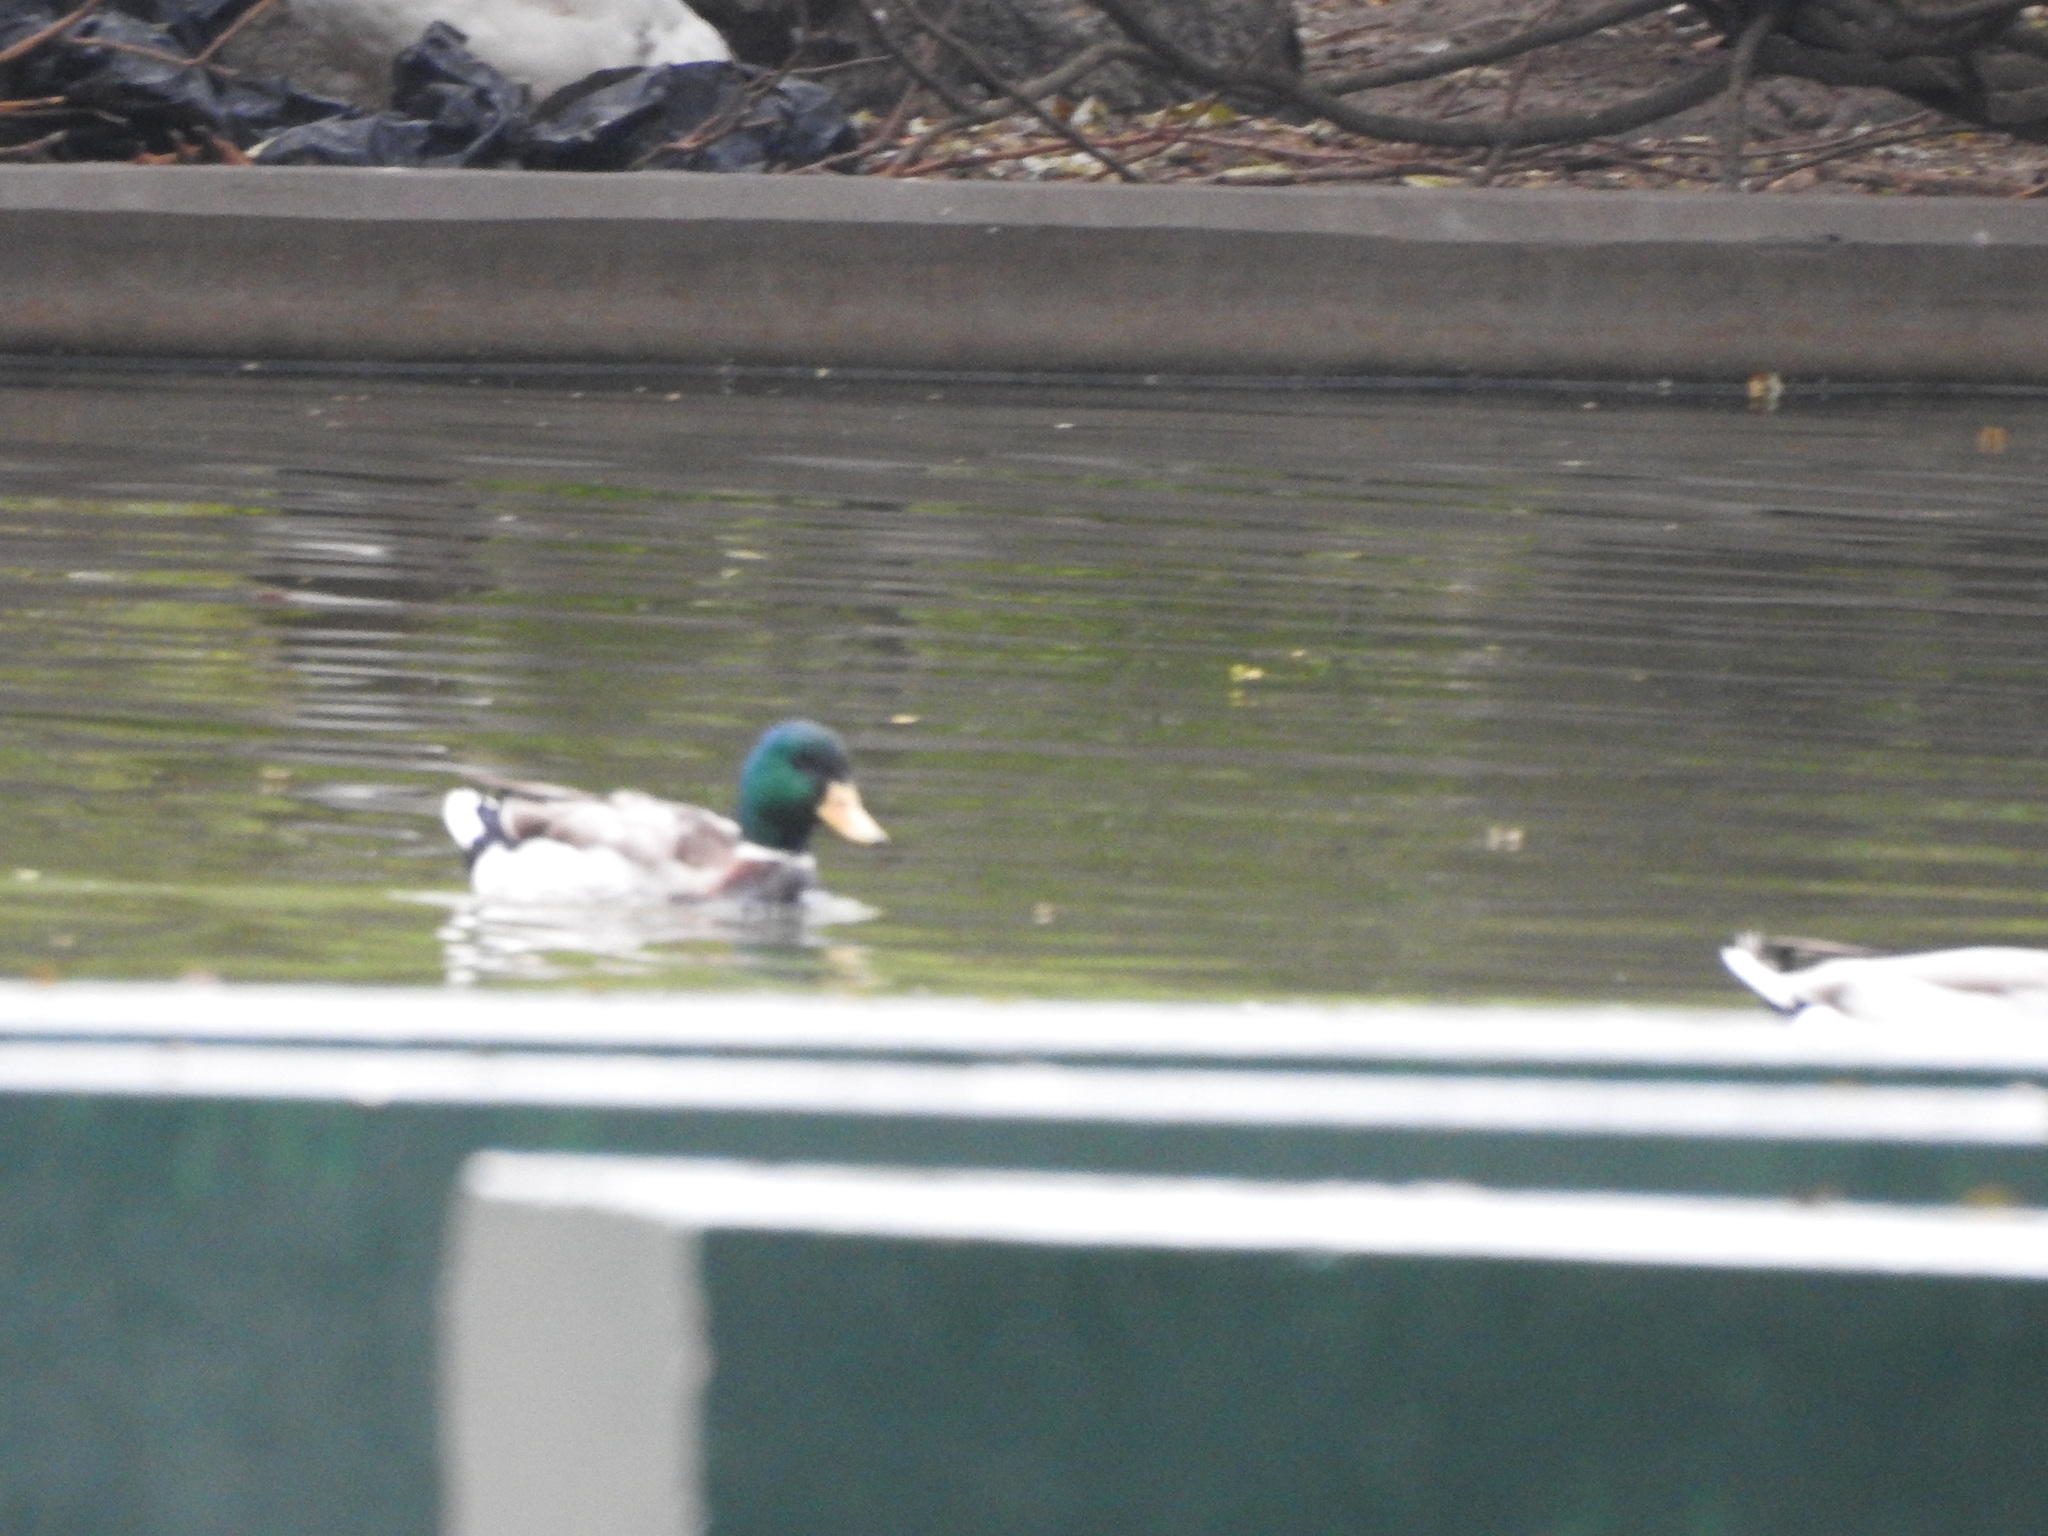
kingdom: Animalia
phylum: Chordata
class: Aves
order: Anseriformes
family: Anatidae
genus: Anas
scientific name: Anas platyrhynchos
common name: Mallard
